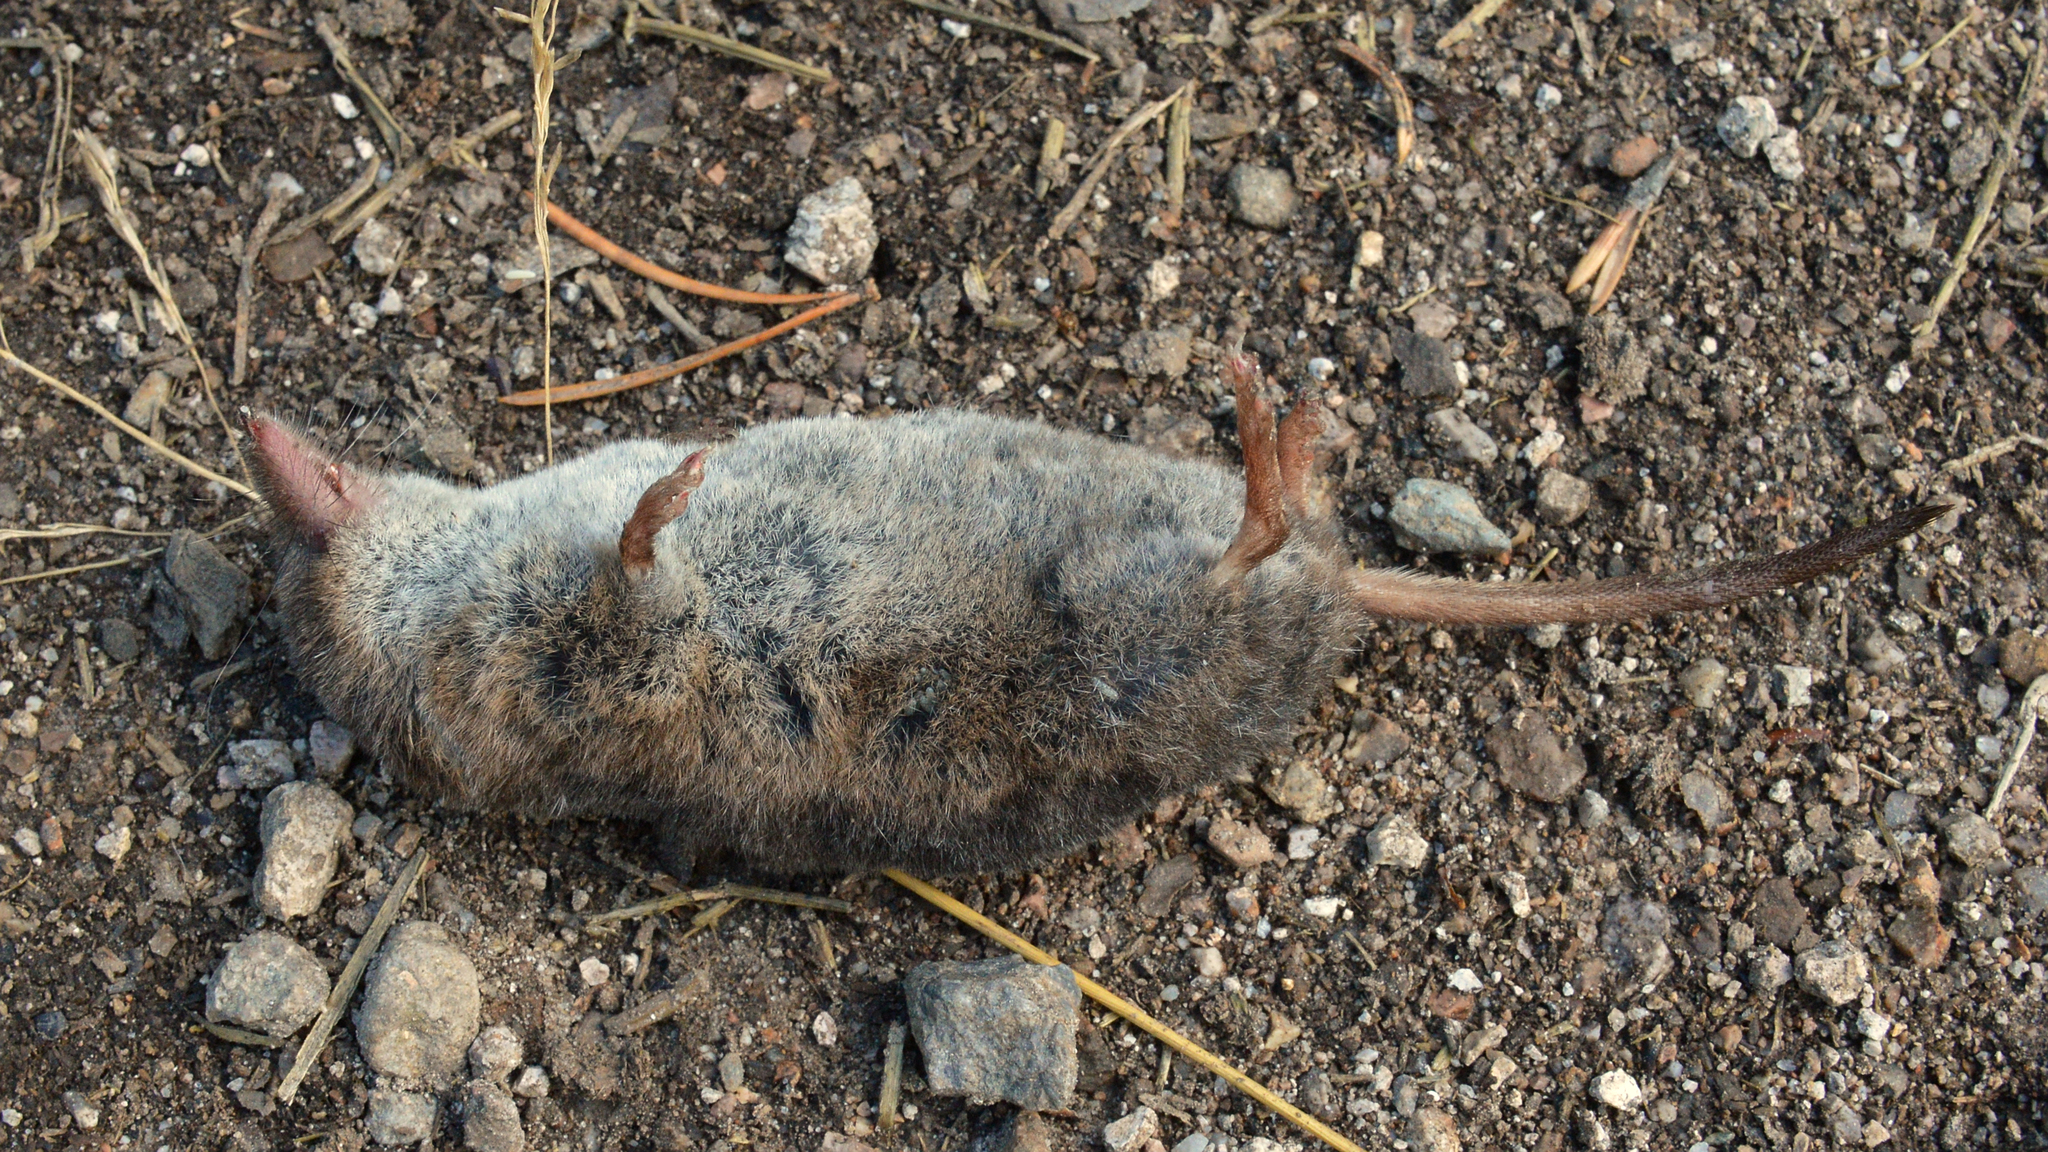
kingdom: Animalia
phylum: Chordata
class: Mammalia
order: Soricomorpha
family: Soricidae
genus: Sorex
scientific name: Sorex araneus
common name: Common shrew
